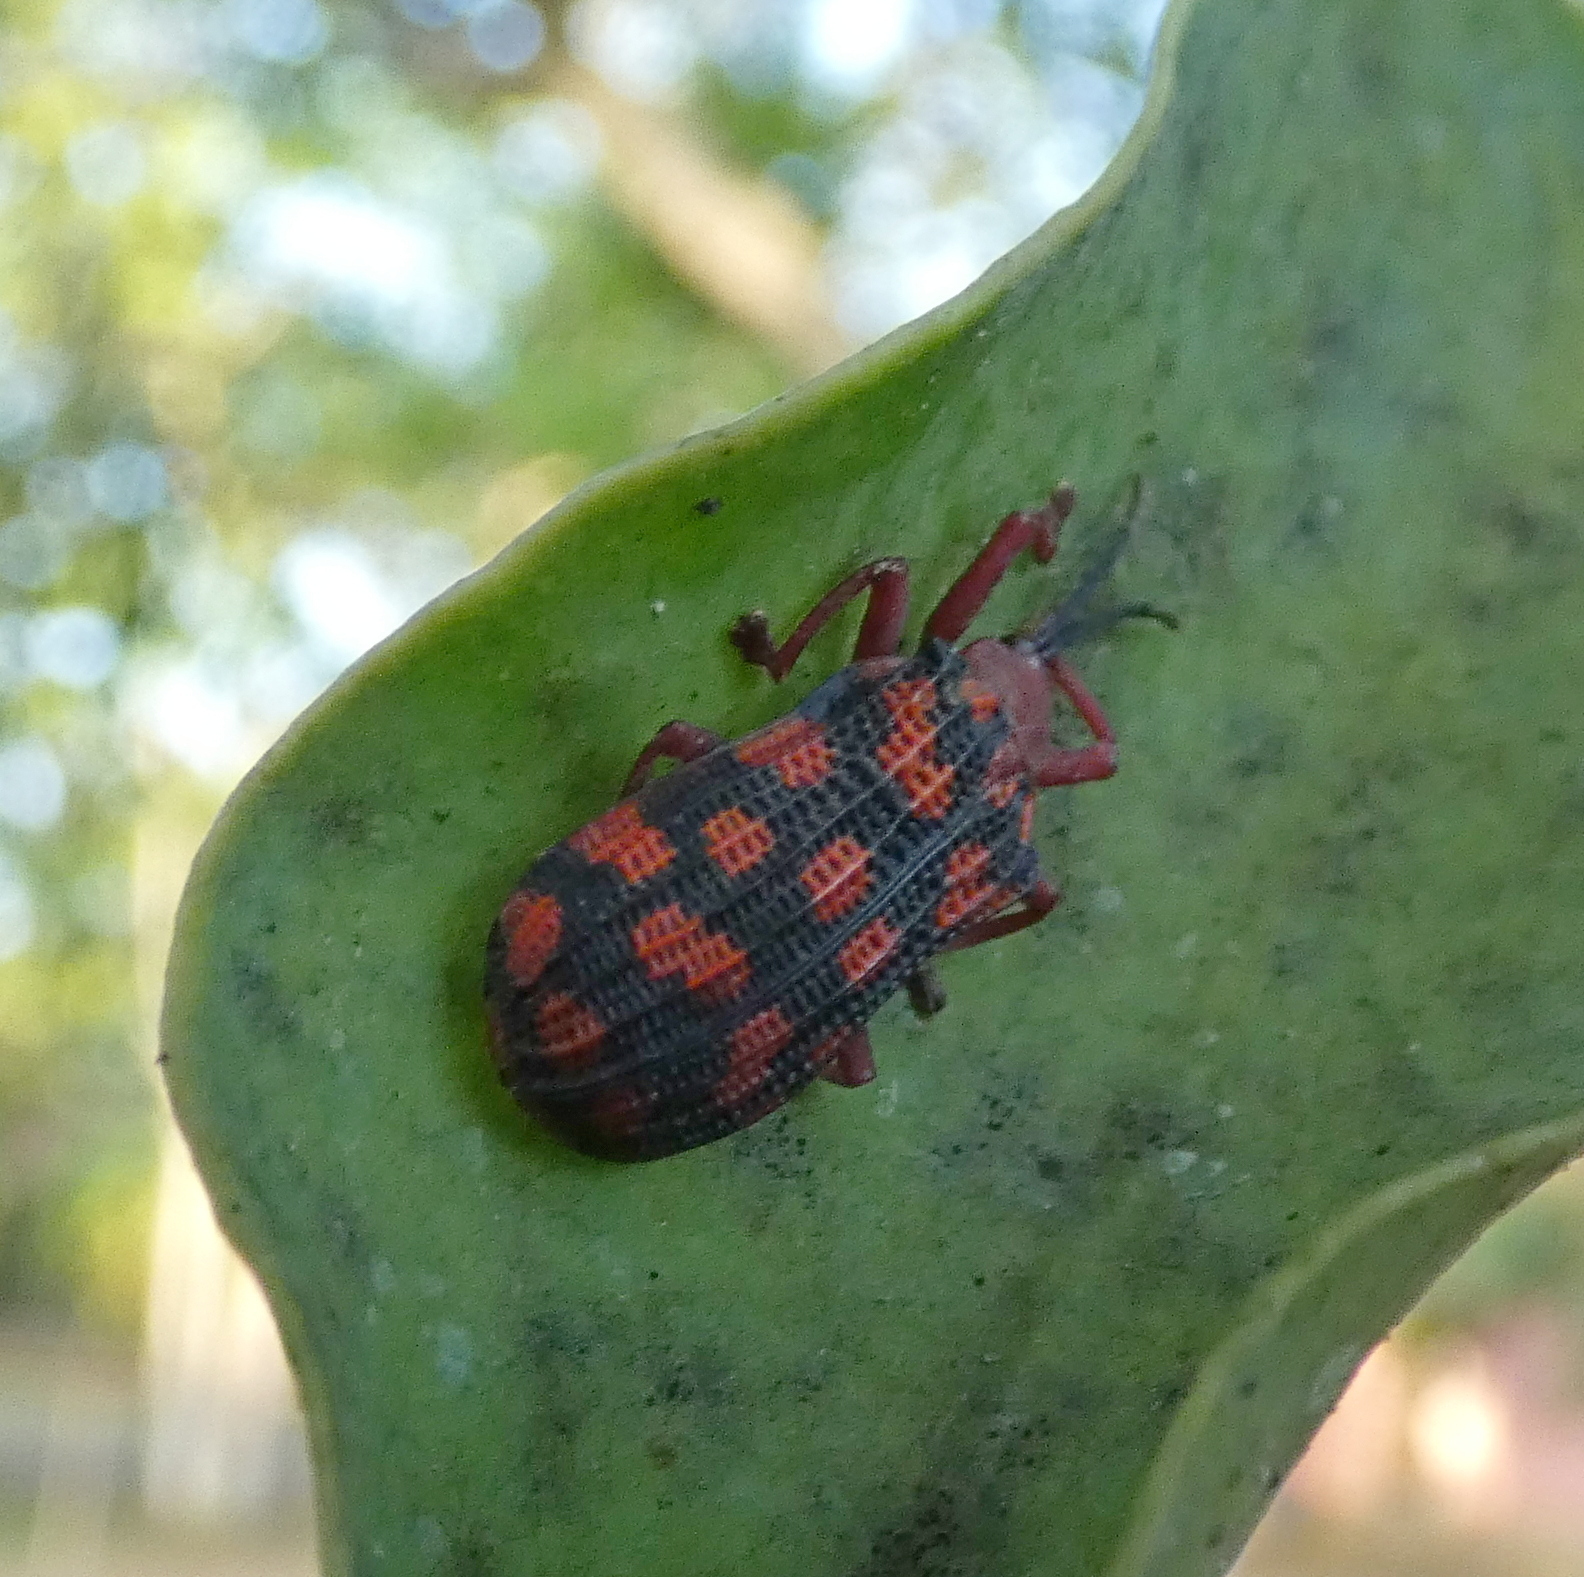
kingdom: Animalia
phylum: Arthropoda
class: Insecta
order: Coleoptera
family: Chrysomelidae
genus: Sceloenopla
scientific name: Sceloenopla maculata
